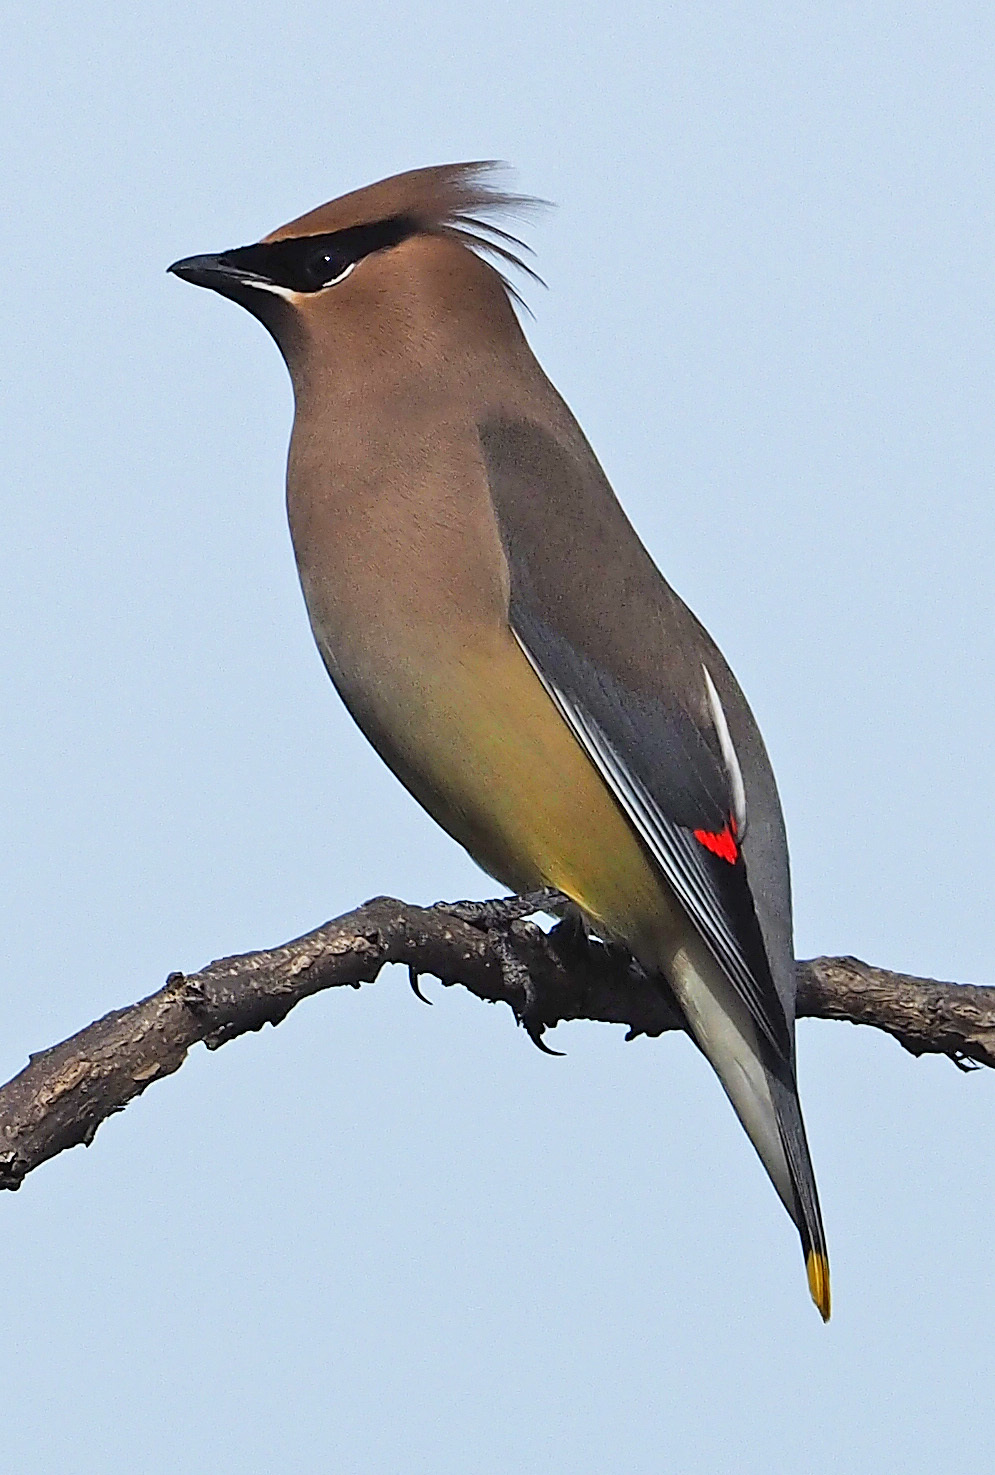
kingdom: Animalia
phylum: Chordata
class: Aves
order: Passeriformes
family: Bombycillidae
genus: Bombycilla
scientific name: Bombycilla cedrorum
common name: Cedar waxwing
